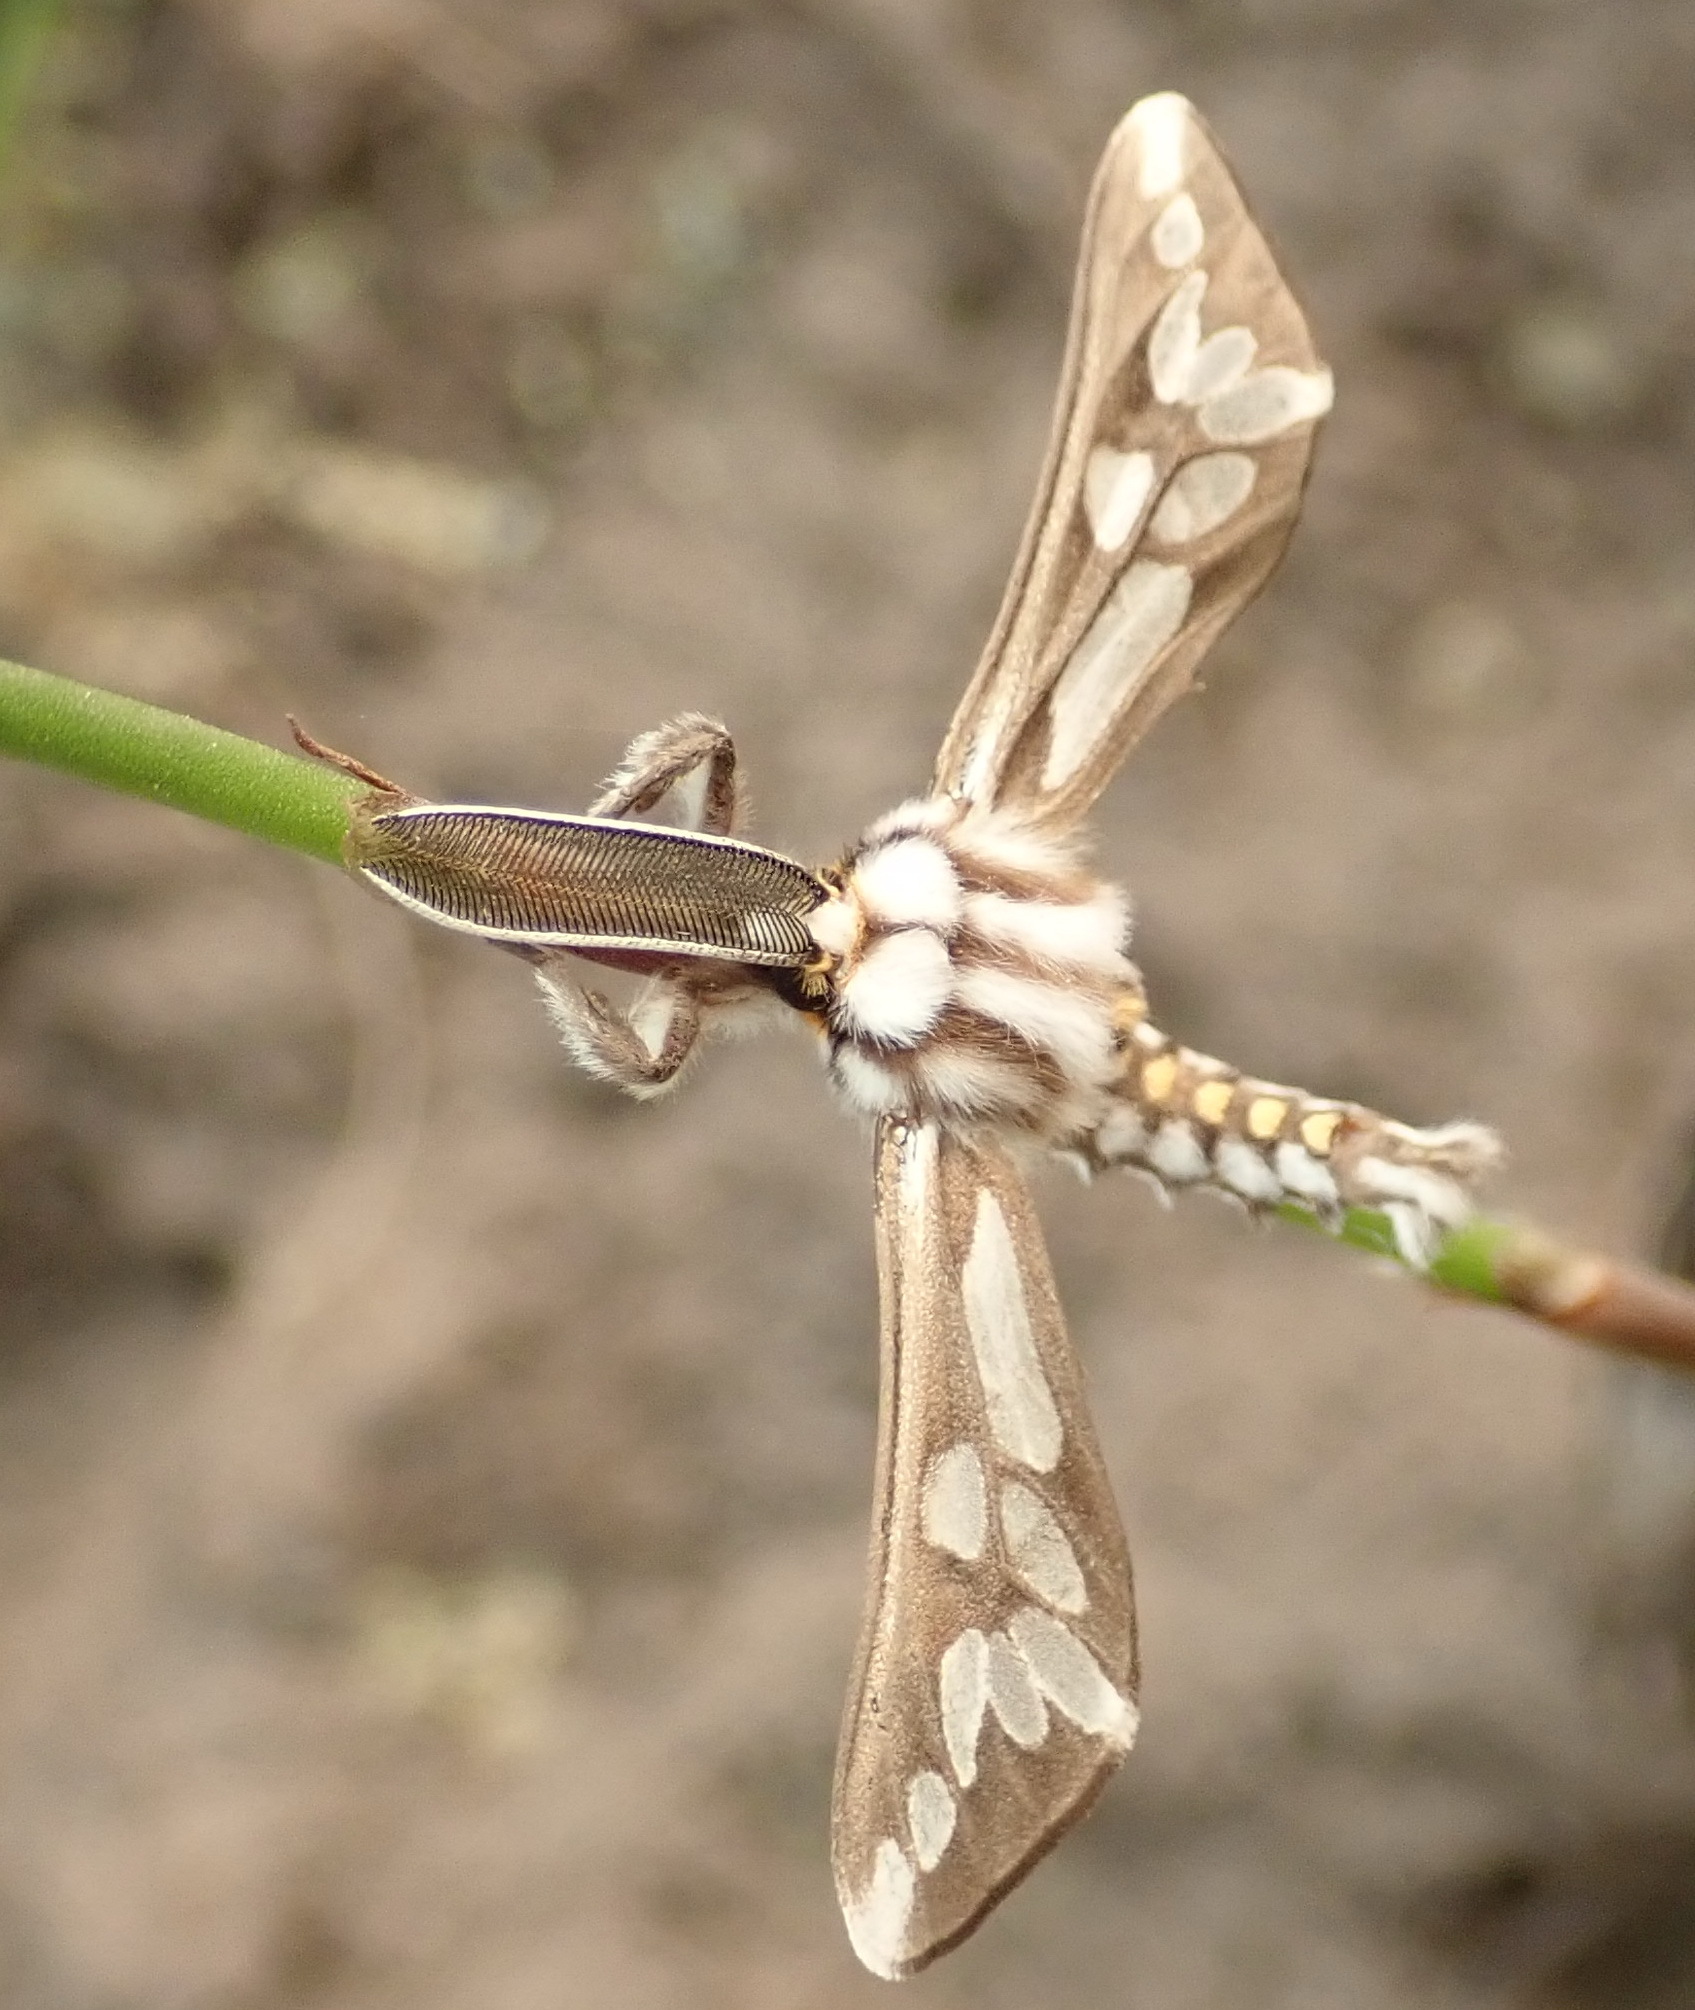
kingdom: Animalia
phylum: Arthropoda
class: Insecta
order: Lepidoptera
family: Erebidae
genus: Thyretes
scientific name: Thyretes hippotes
